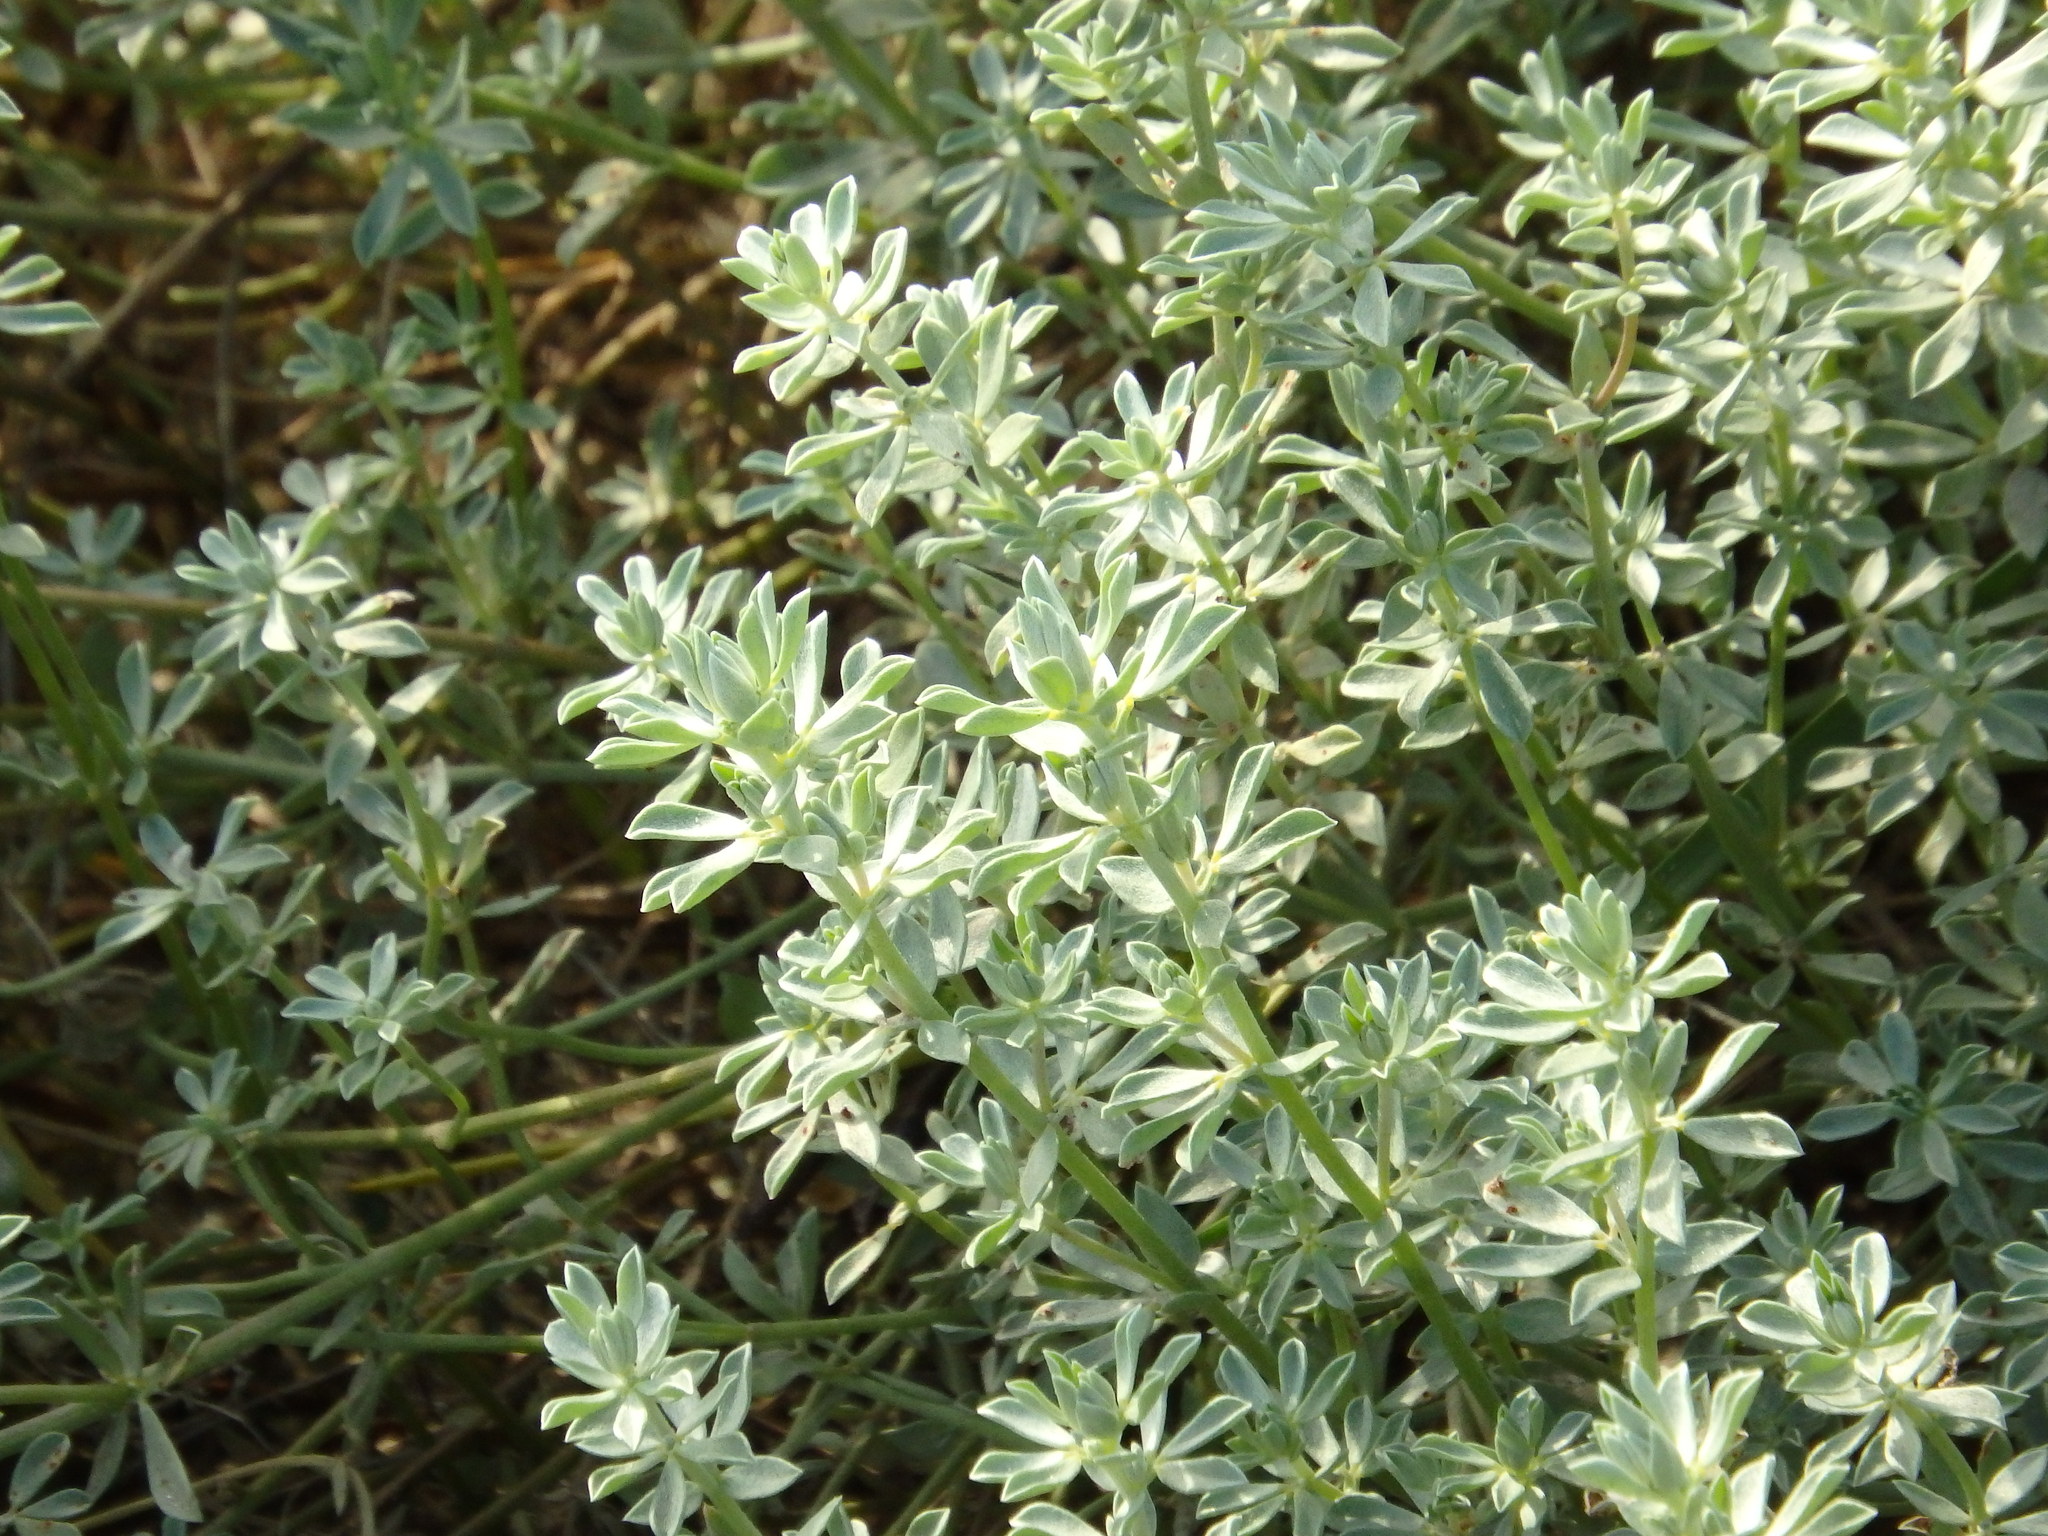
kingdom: Plantae
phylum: Tracheophyta
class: Magnoliopsida
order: Fabales
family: Fabaceae
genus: Lotus
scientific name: Lotus creticus
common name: Cretan bird's-foot trefoil
